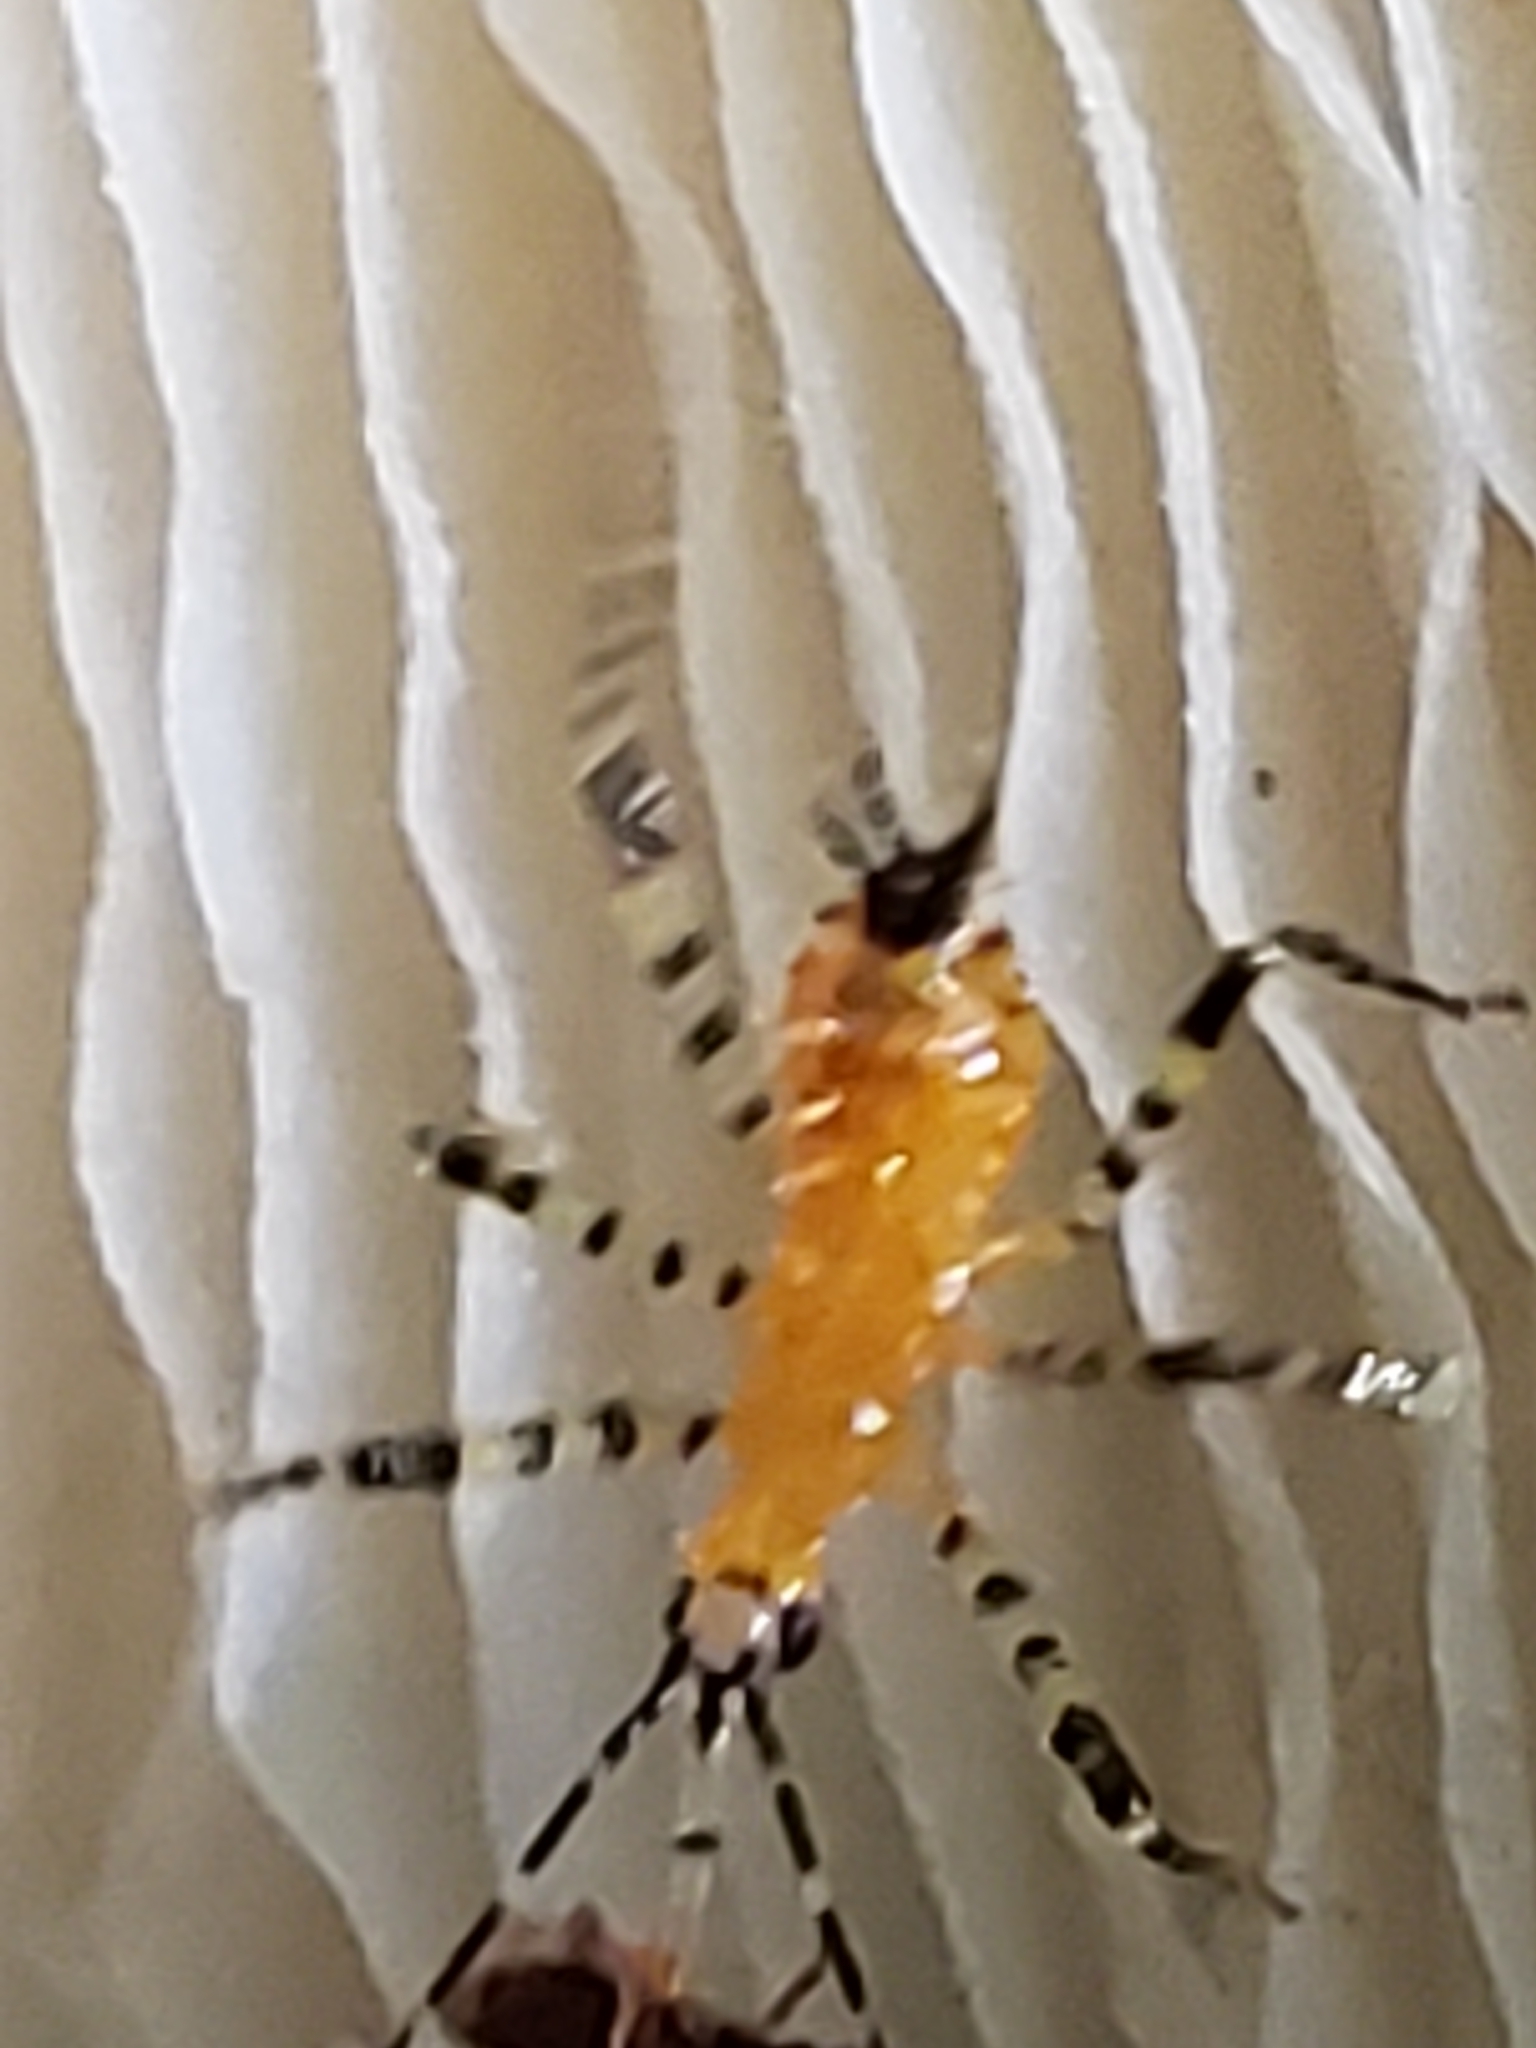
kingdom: Animalia
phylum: Arthropoda
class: Insecta
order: Hemiptera
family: Reduviidae
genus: Pselliopus
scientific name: Pselliopus barberi
